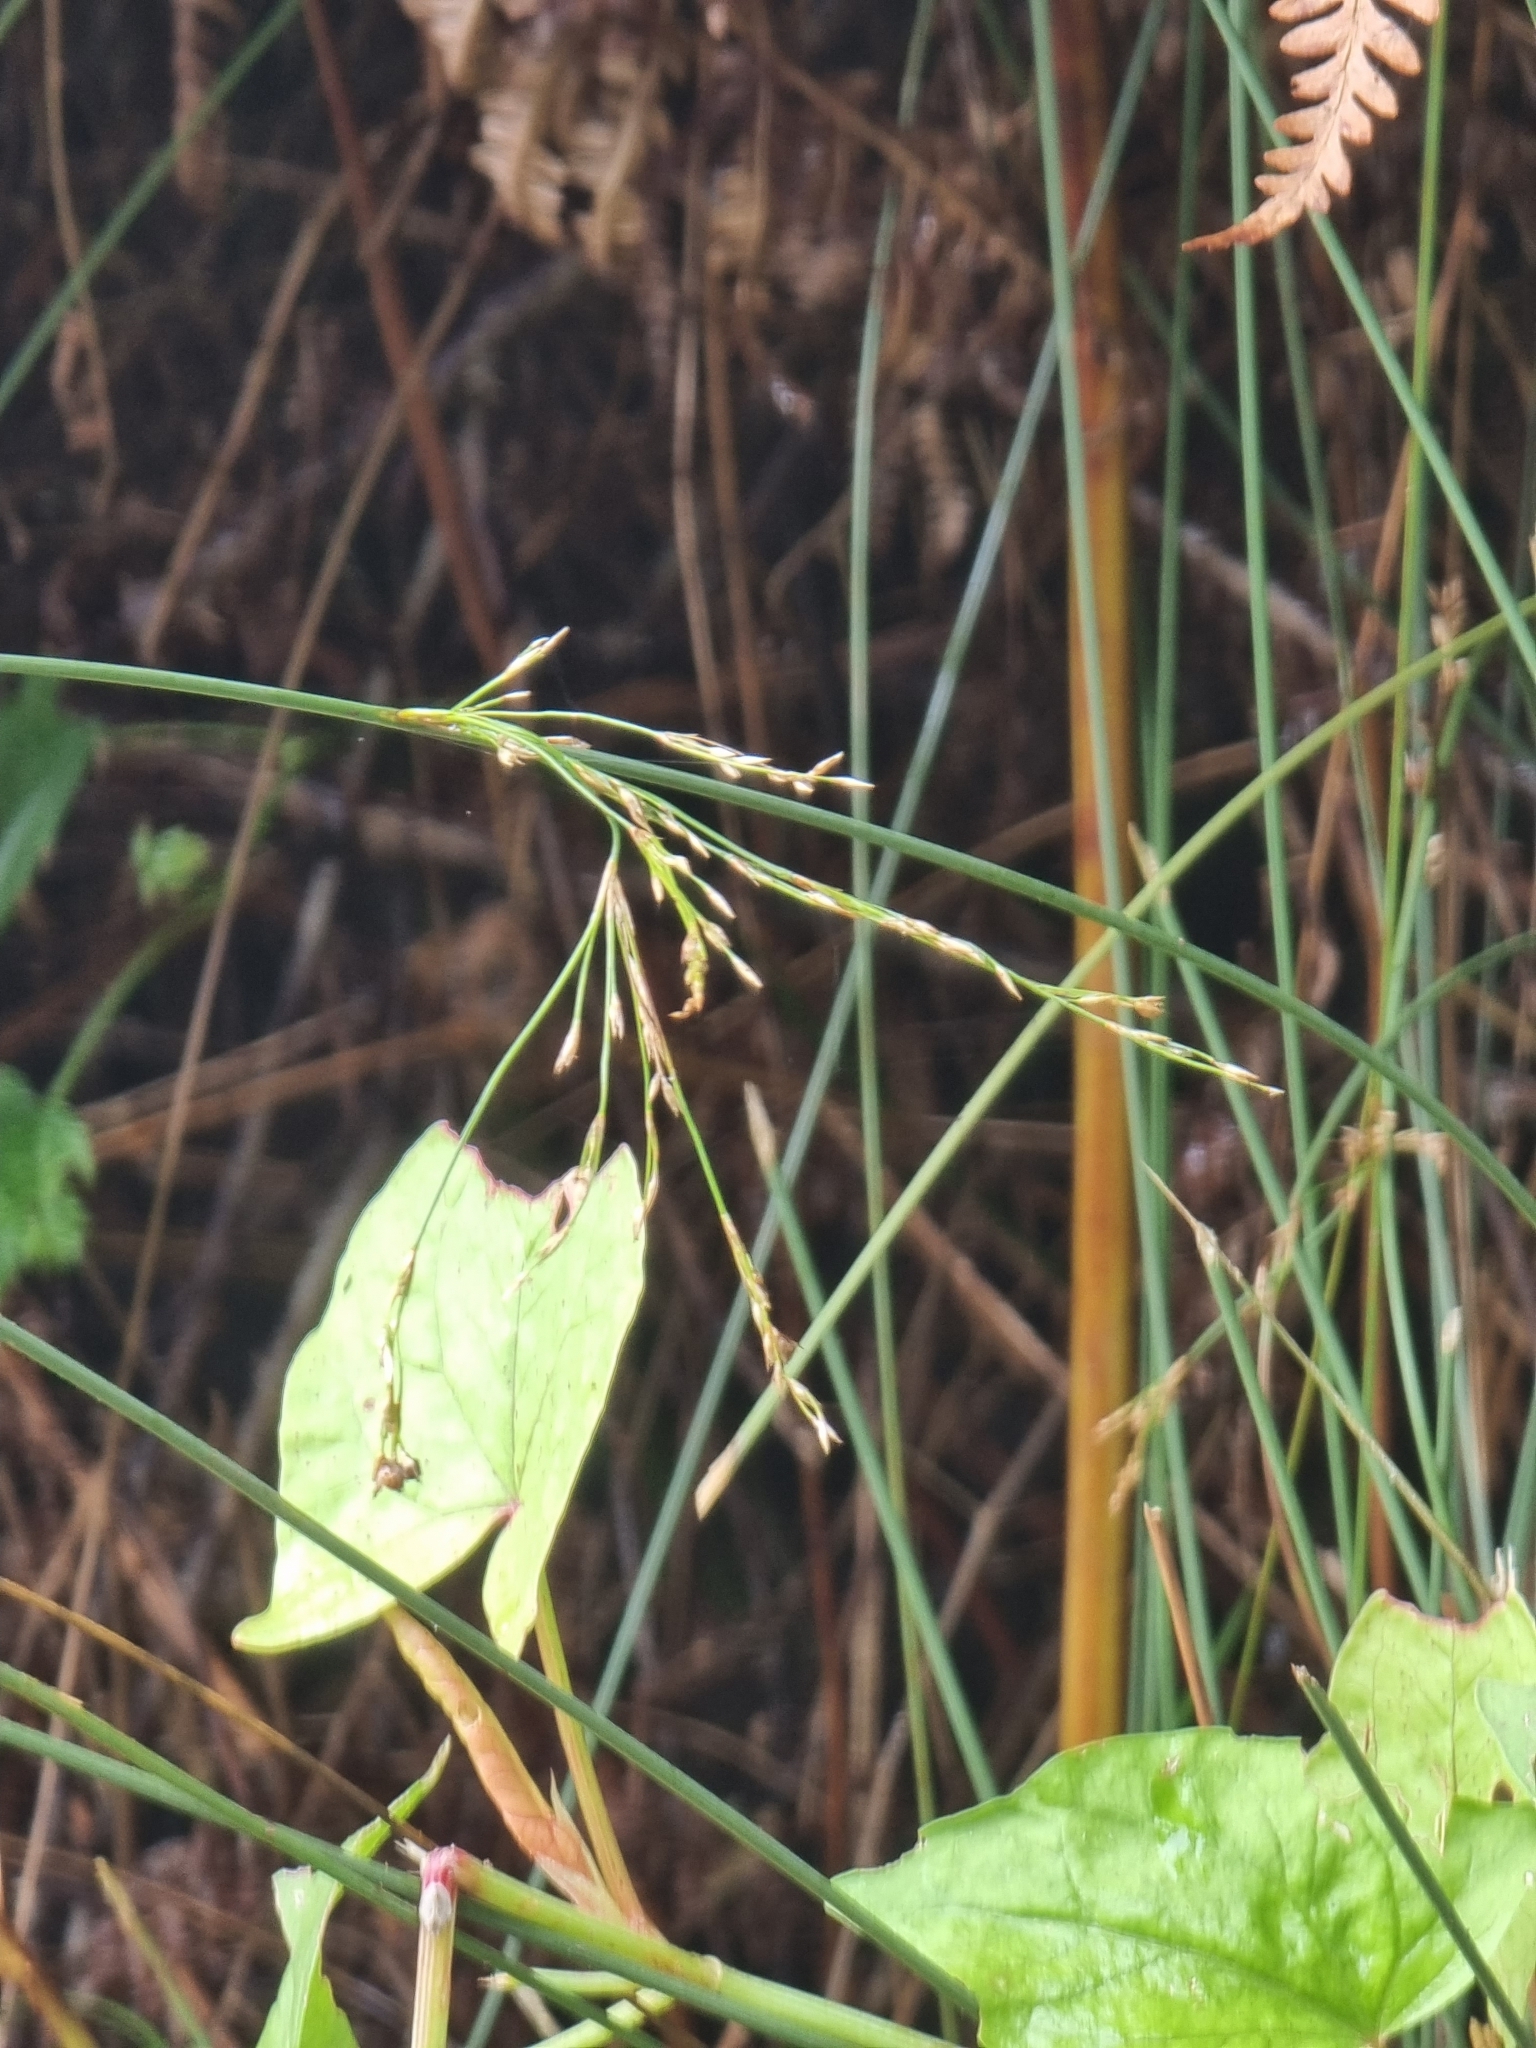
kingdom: Plantae
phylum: Tracheophyta
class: Liliopsida
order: Poales
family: Juncaceae
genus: Juncus
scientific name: Juncus inflexus
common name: Hard rush
